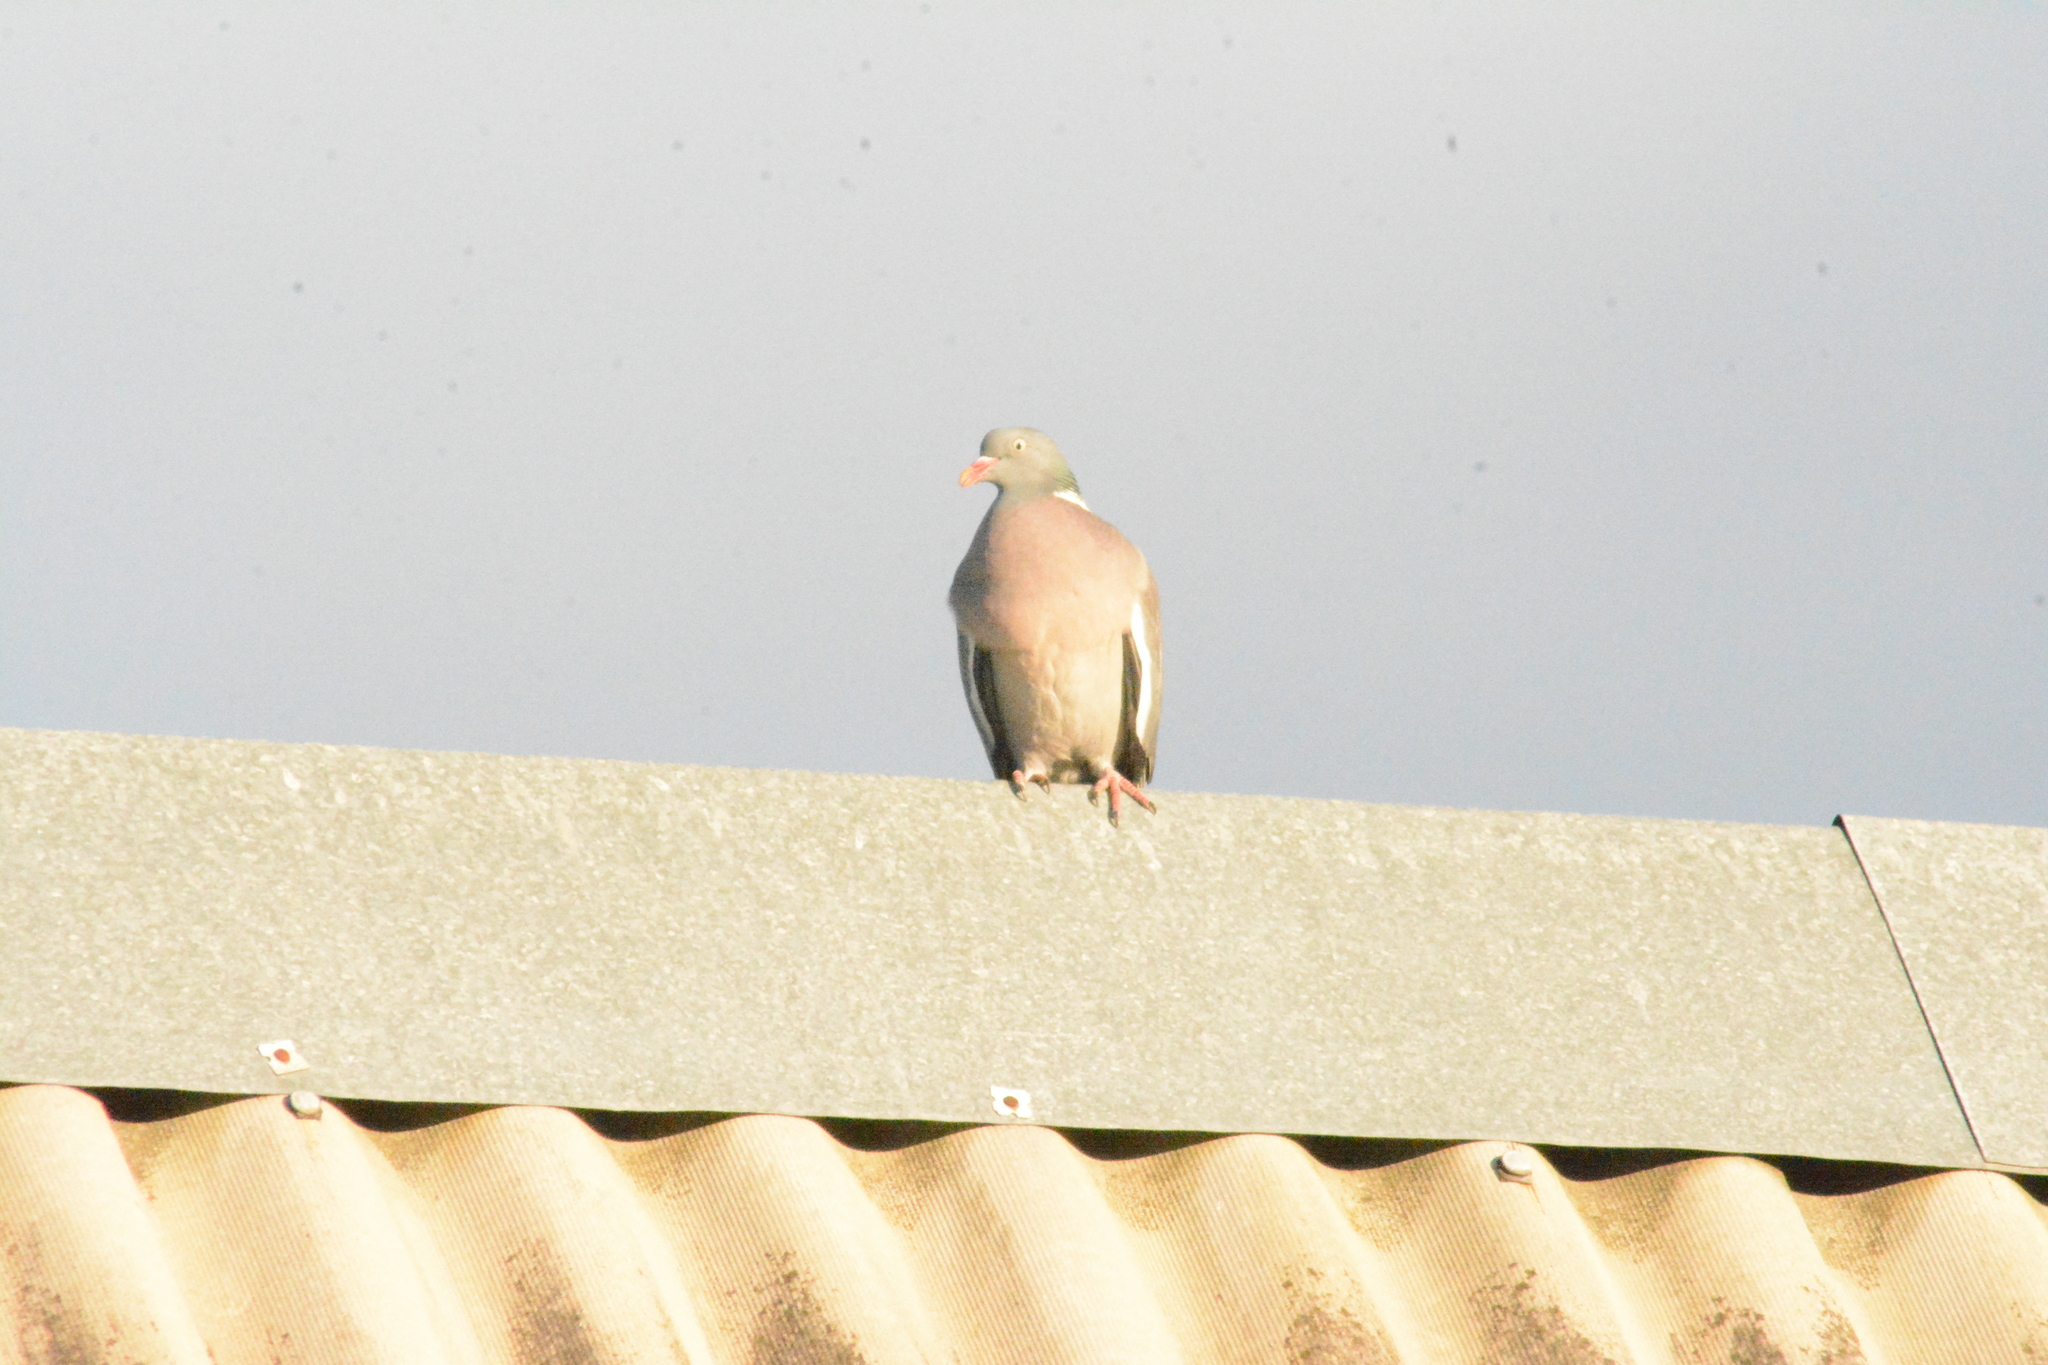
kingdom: Animalia
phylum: Chordata
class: Aves
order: Columbiformes
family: Columbidae
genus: Columba
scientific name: Columba palumbus
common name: Common wood pigeon
